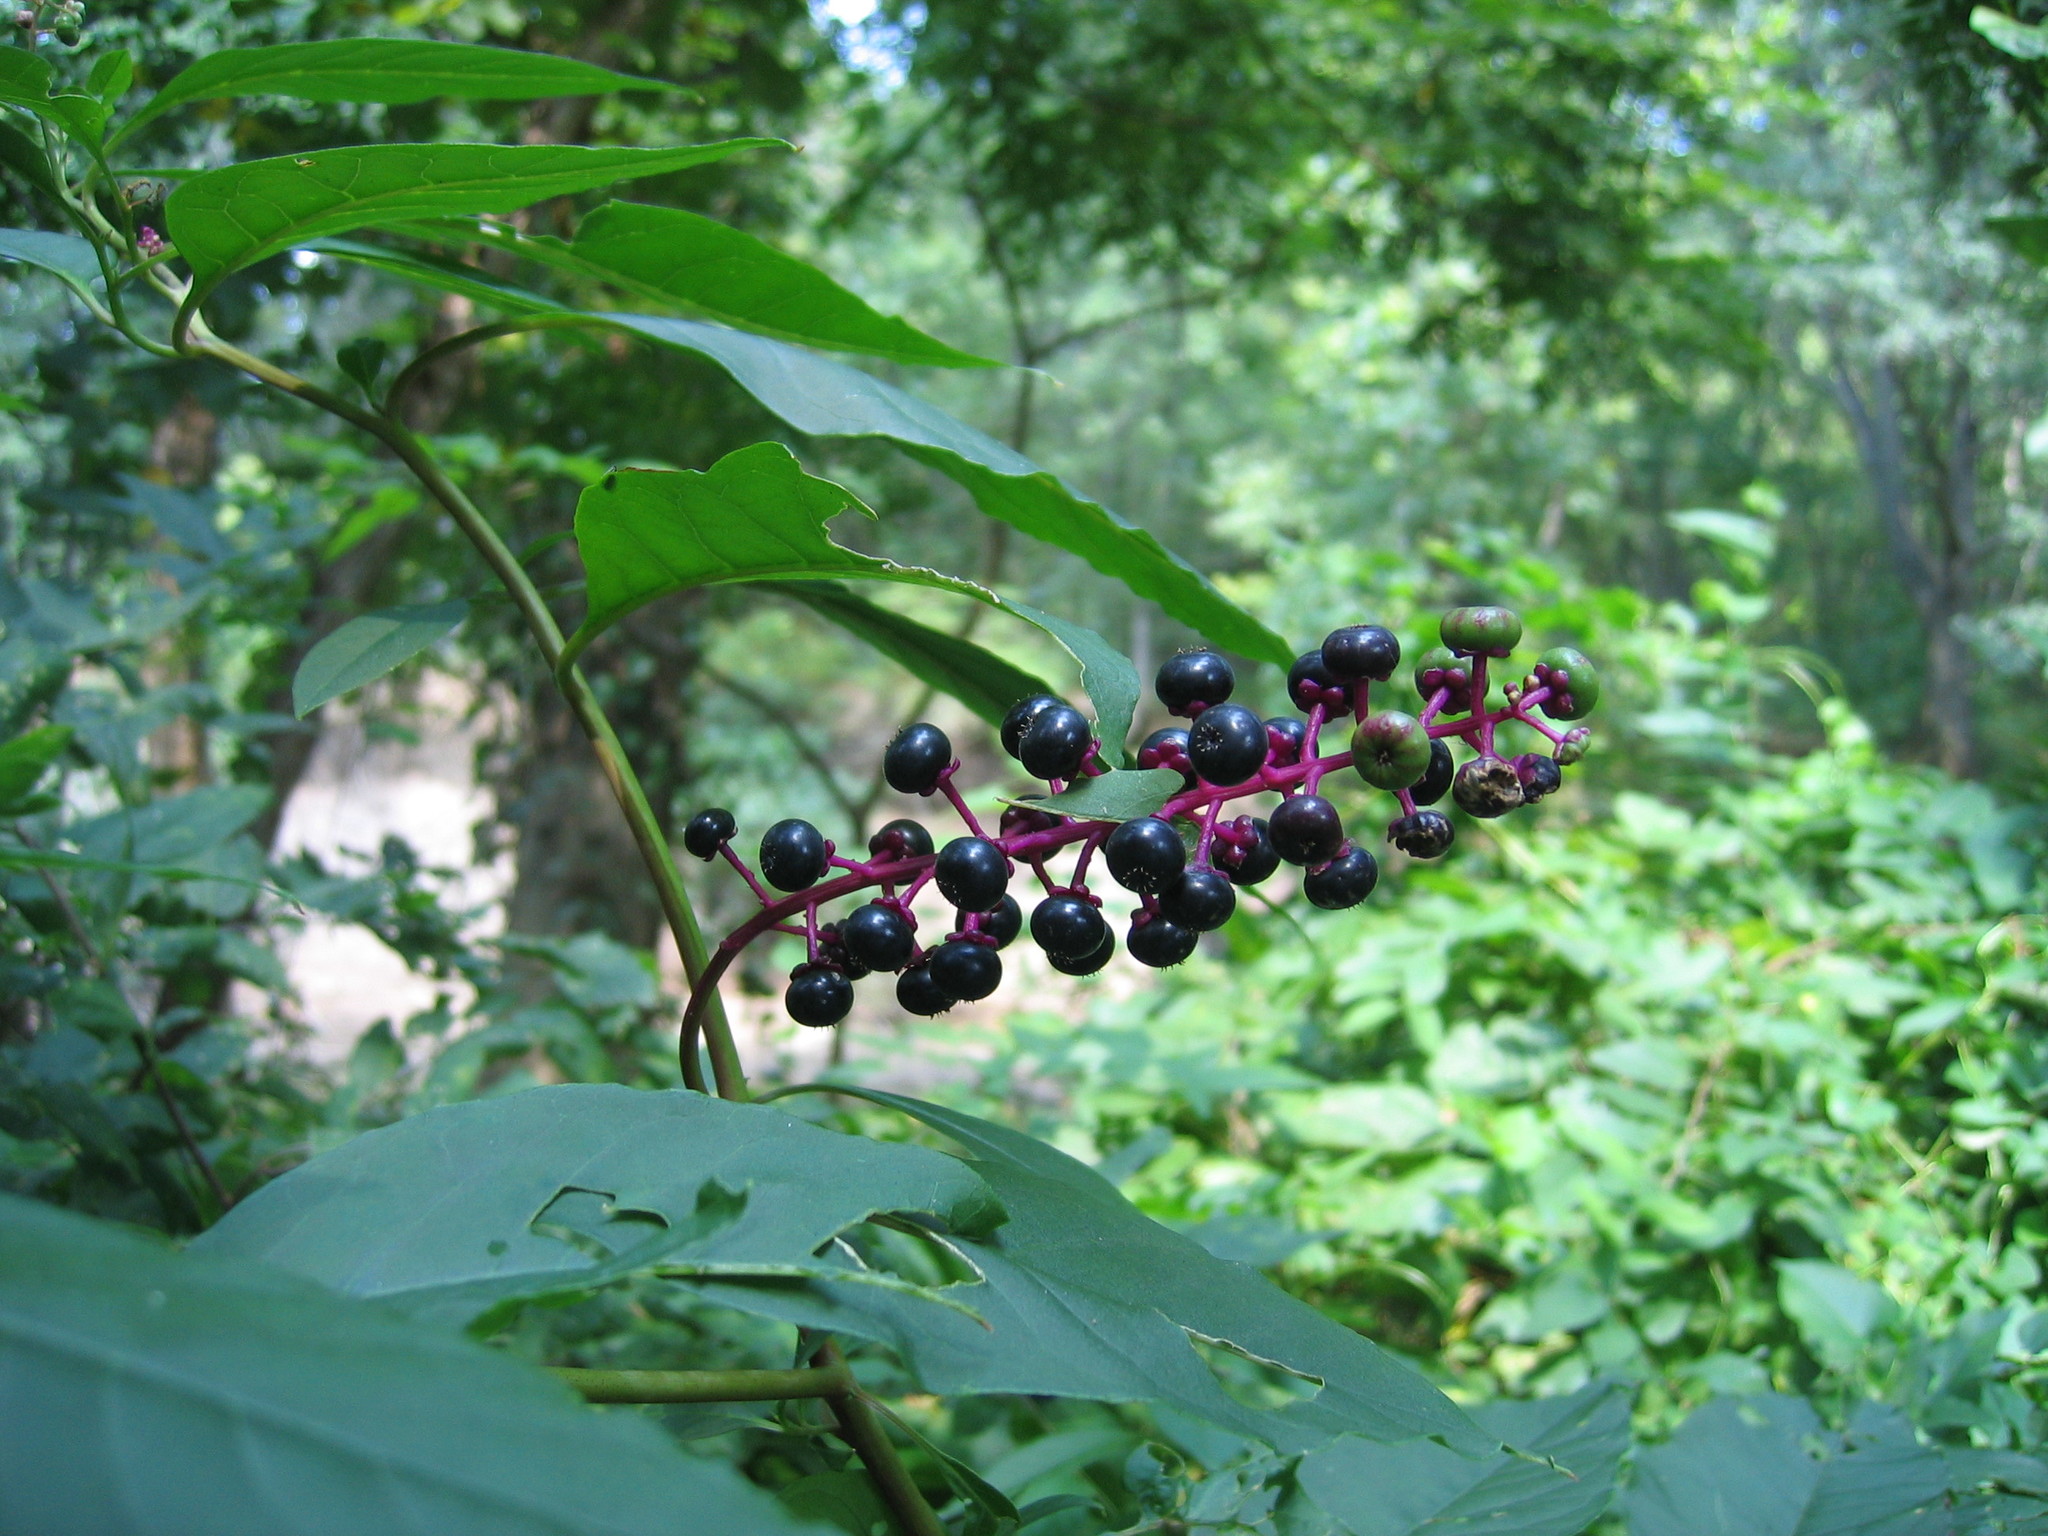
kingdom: Plantae
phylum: Tracheophyta
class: Magnoliopsida
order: Caryophyllales
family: Phytolaccaceae
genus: Phytolacca
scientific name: Phytolacca americana
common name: American pokeweed
